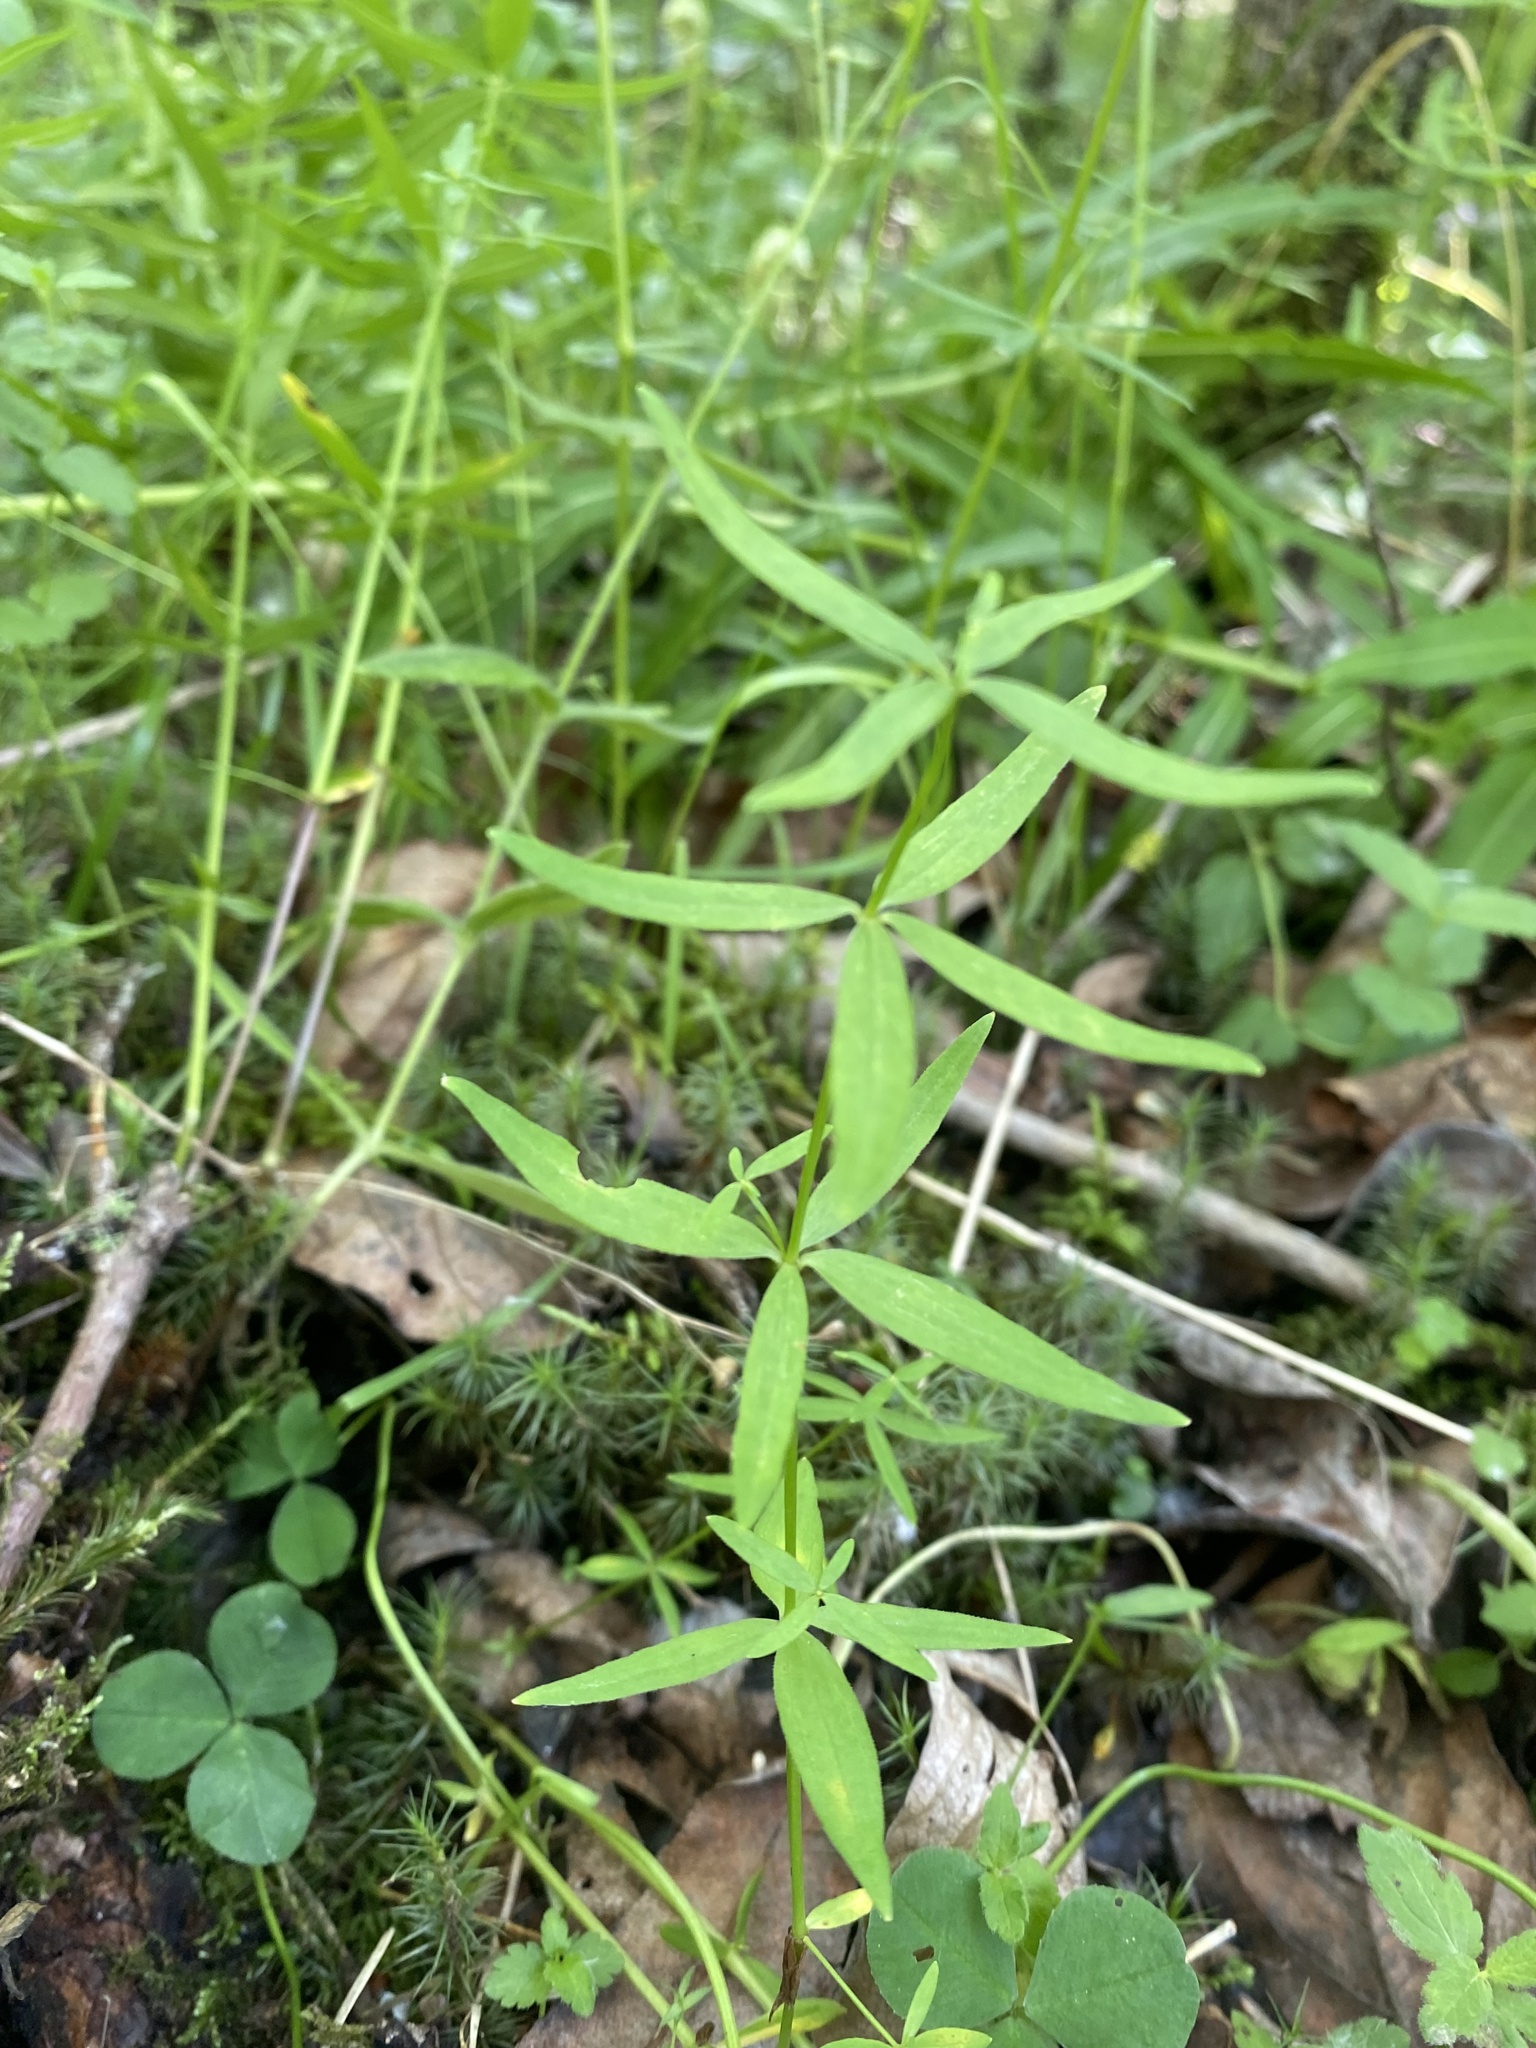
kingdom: Plantae
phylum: Tracheophyta
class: Magnoliopsida
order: Gentianales
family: Rubiaceae
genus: Galium
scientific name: Galium boreale
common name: Northern bedstraw
